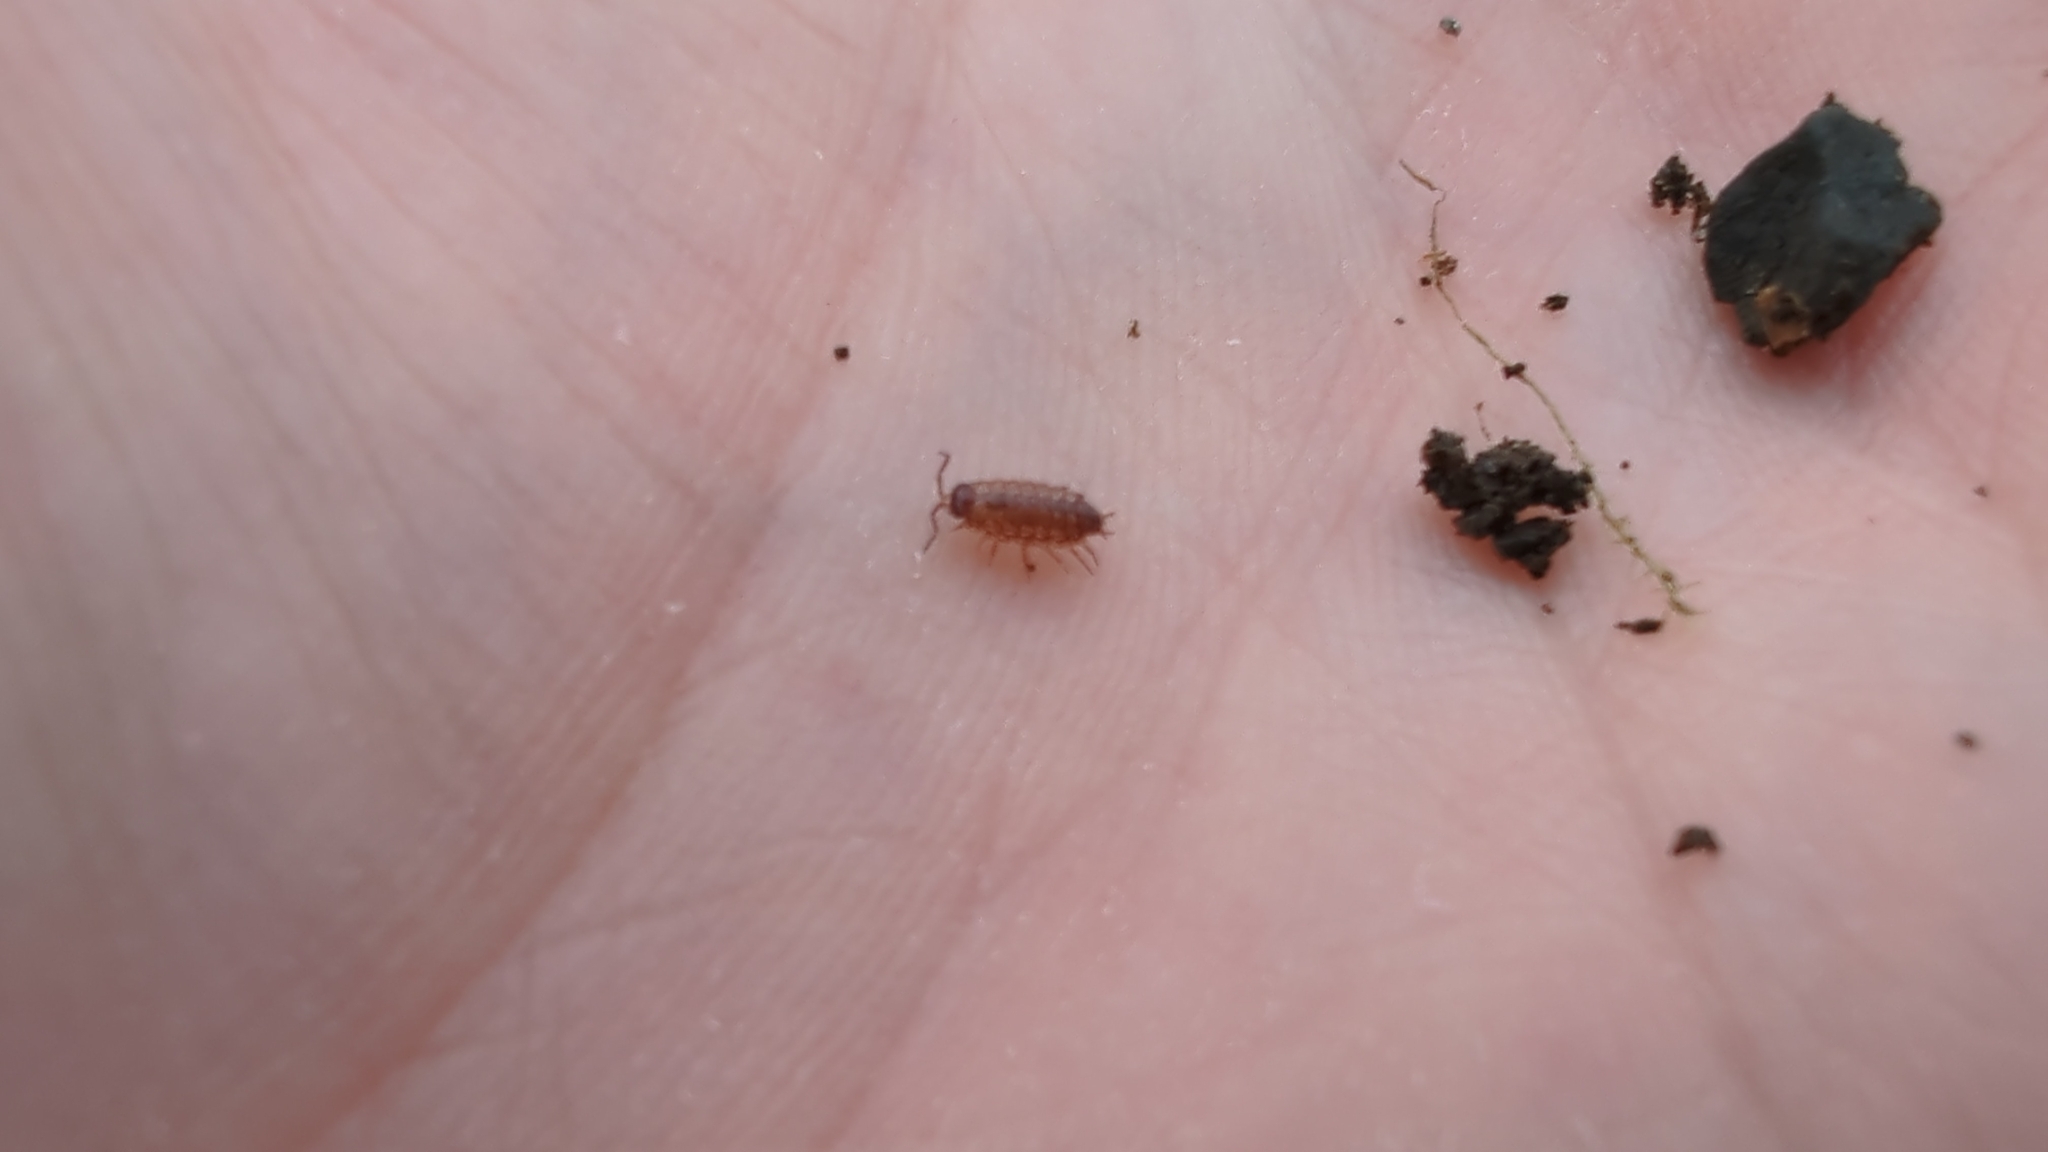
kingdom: Animalia
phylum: Arthropoda
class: Malacostraca
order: Isopoda
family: Philosciidae
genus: Philoscia
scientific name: Philoscia muscorum
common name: Common striped woodlouse
